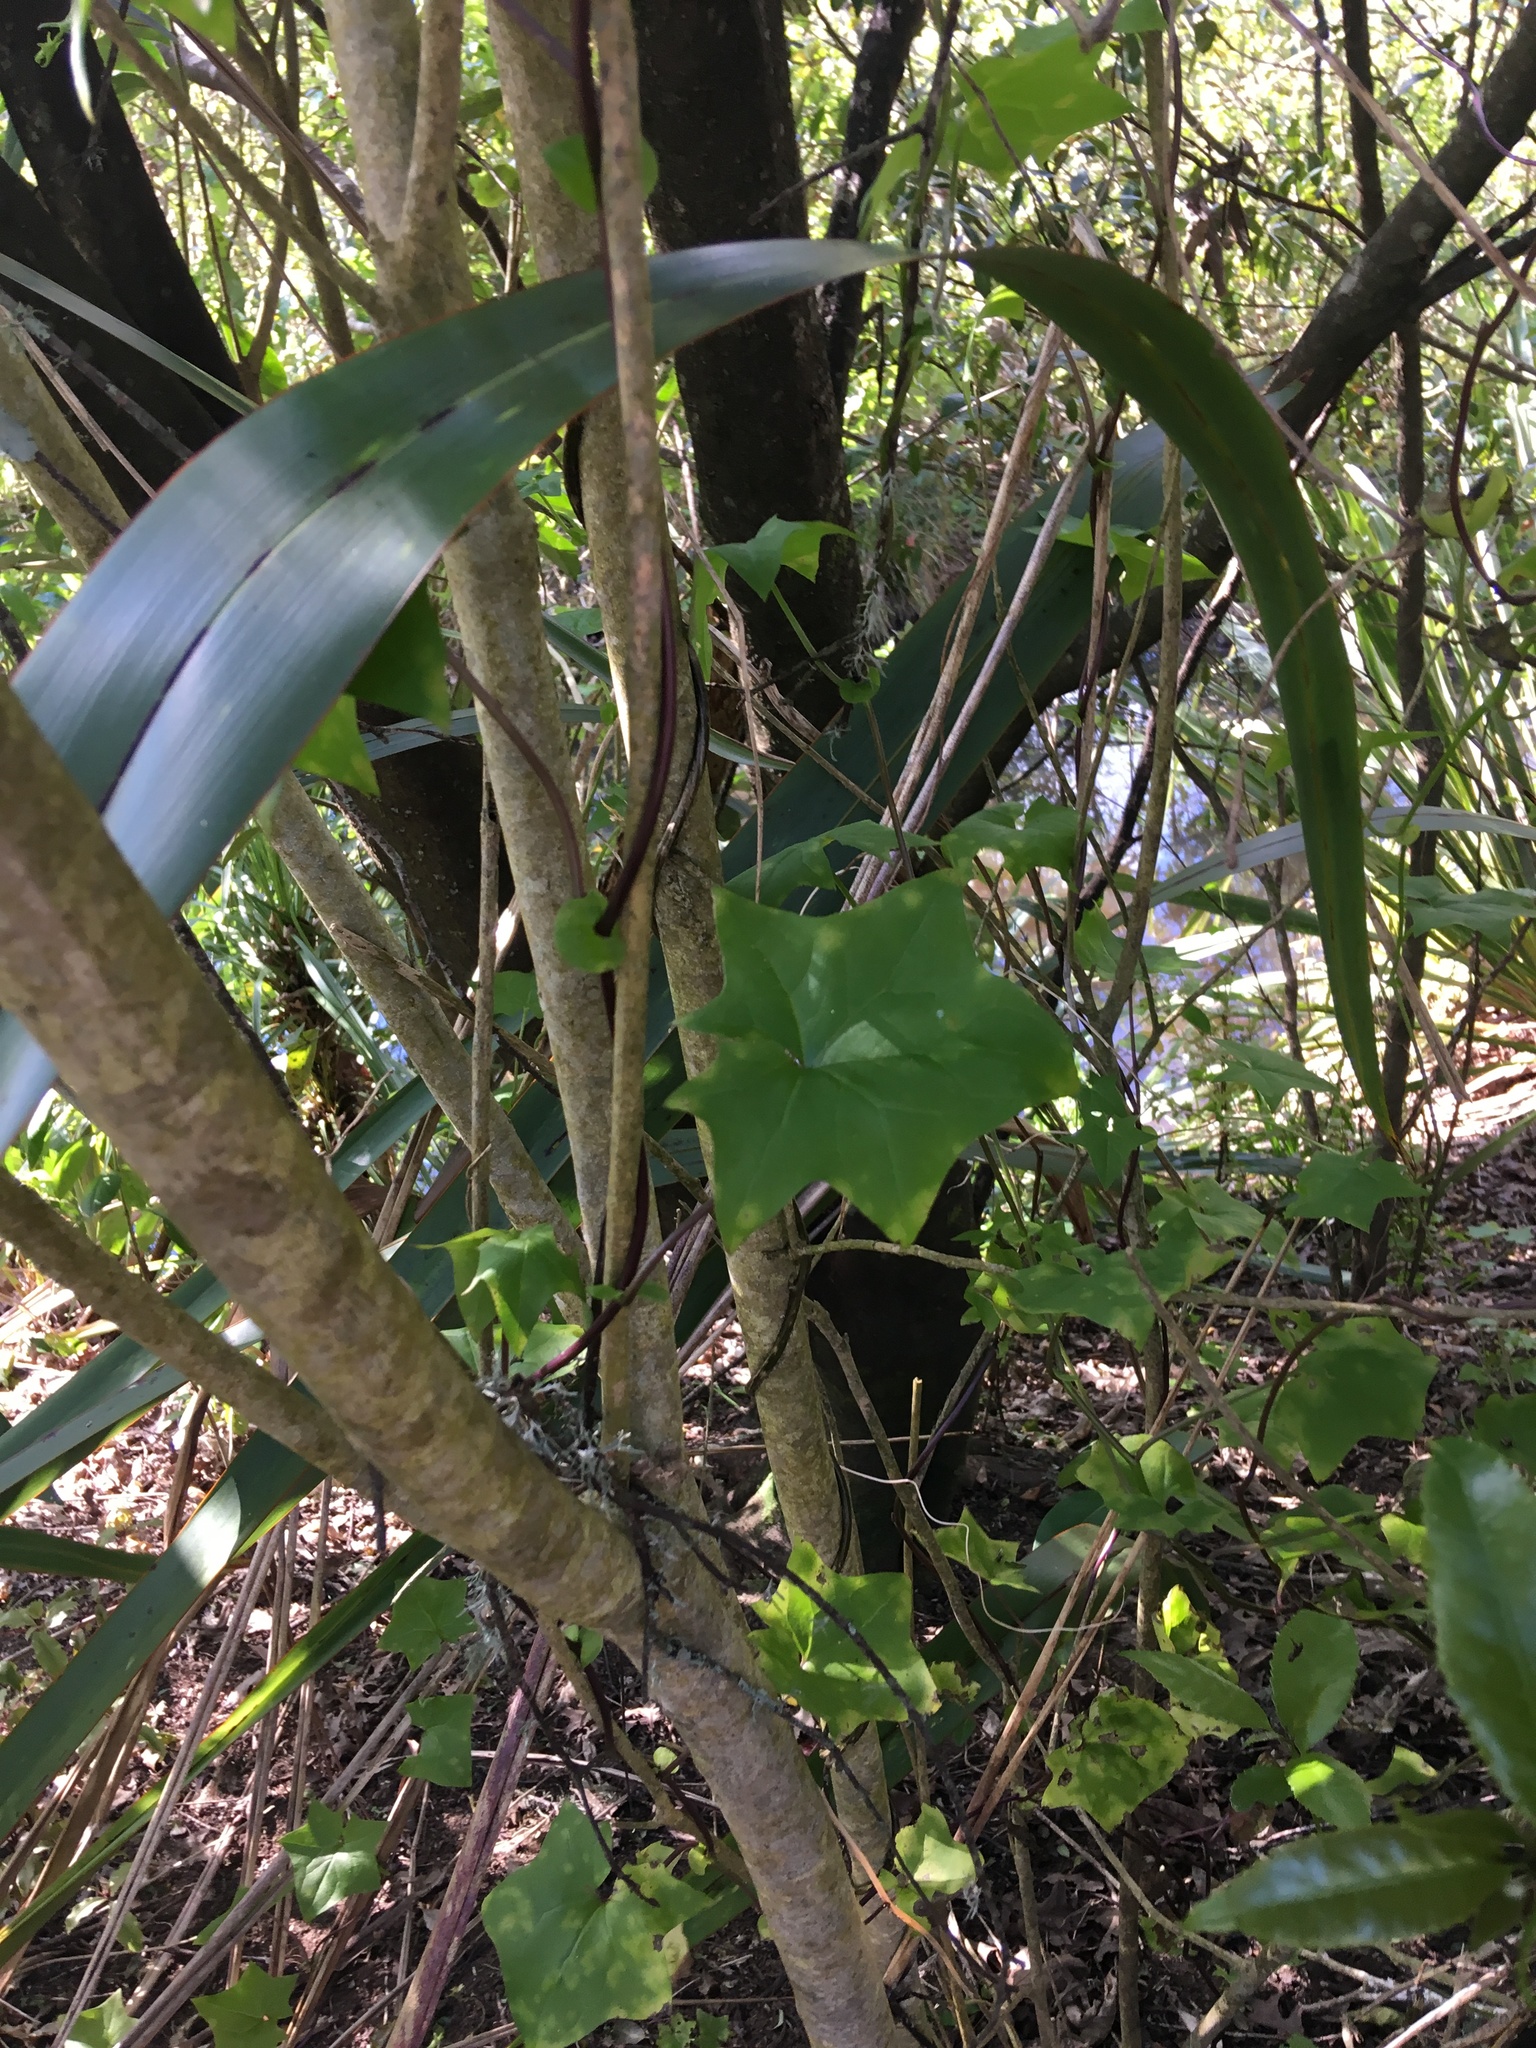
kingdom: Plantae
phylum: Tracheophyta
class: Magnoliopsida
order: Malpighiales
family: Violaceae
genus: Melicytus
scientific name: Melicytus ramiflorus
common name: Mahoe
